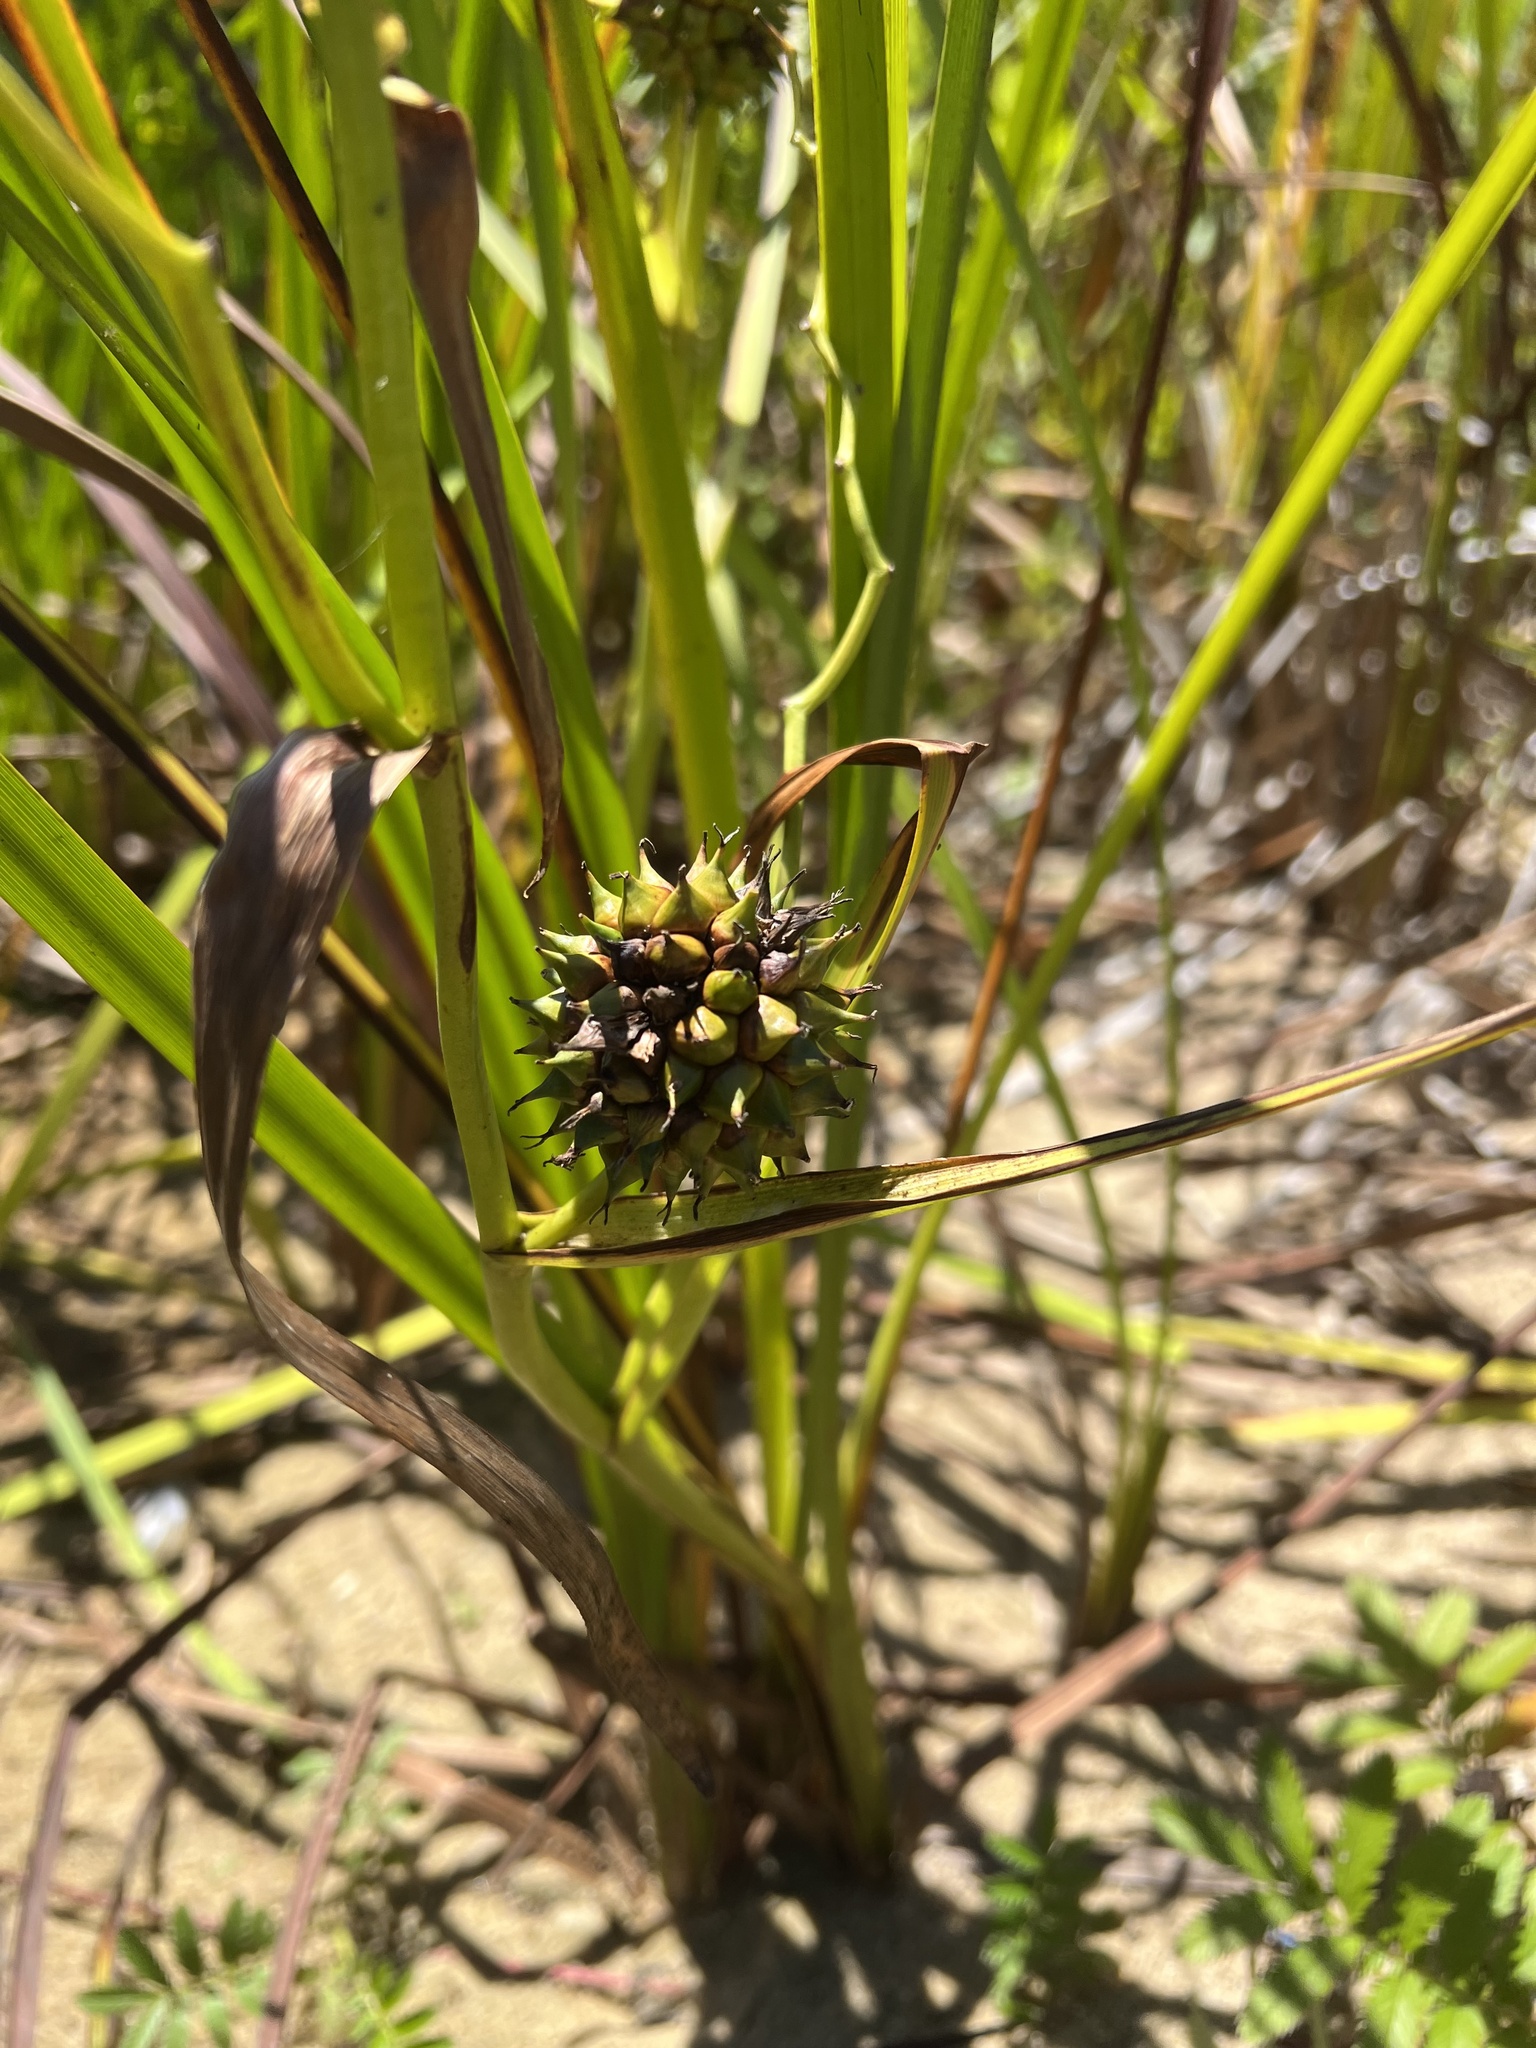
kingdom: Plantae
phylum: Tracheophyta
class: Liliopsida
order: Poales
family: Typhaceae
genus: Sparganium
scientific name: Sparganium eurycarpum
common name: Broad-fruited burreed
